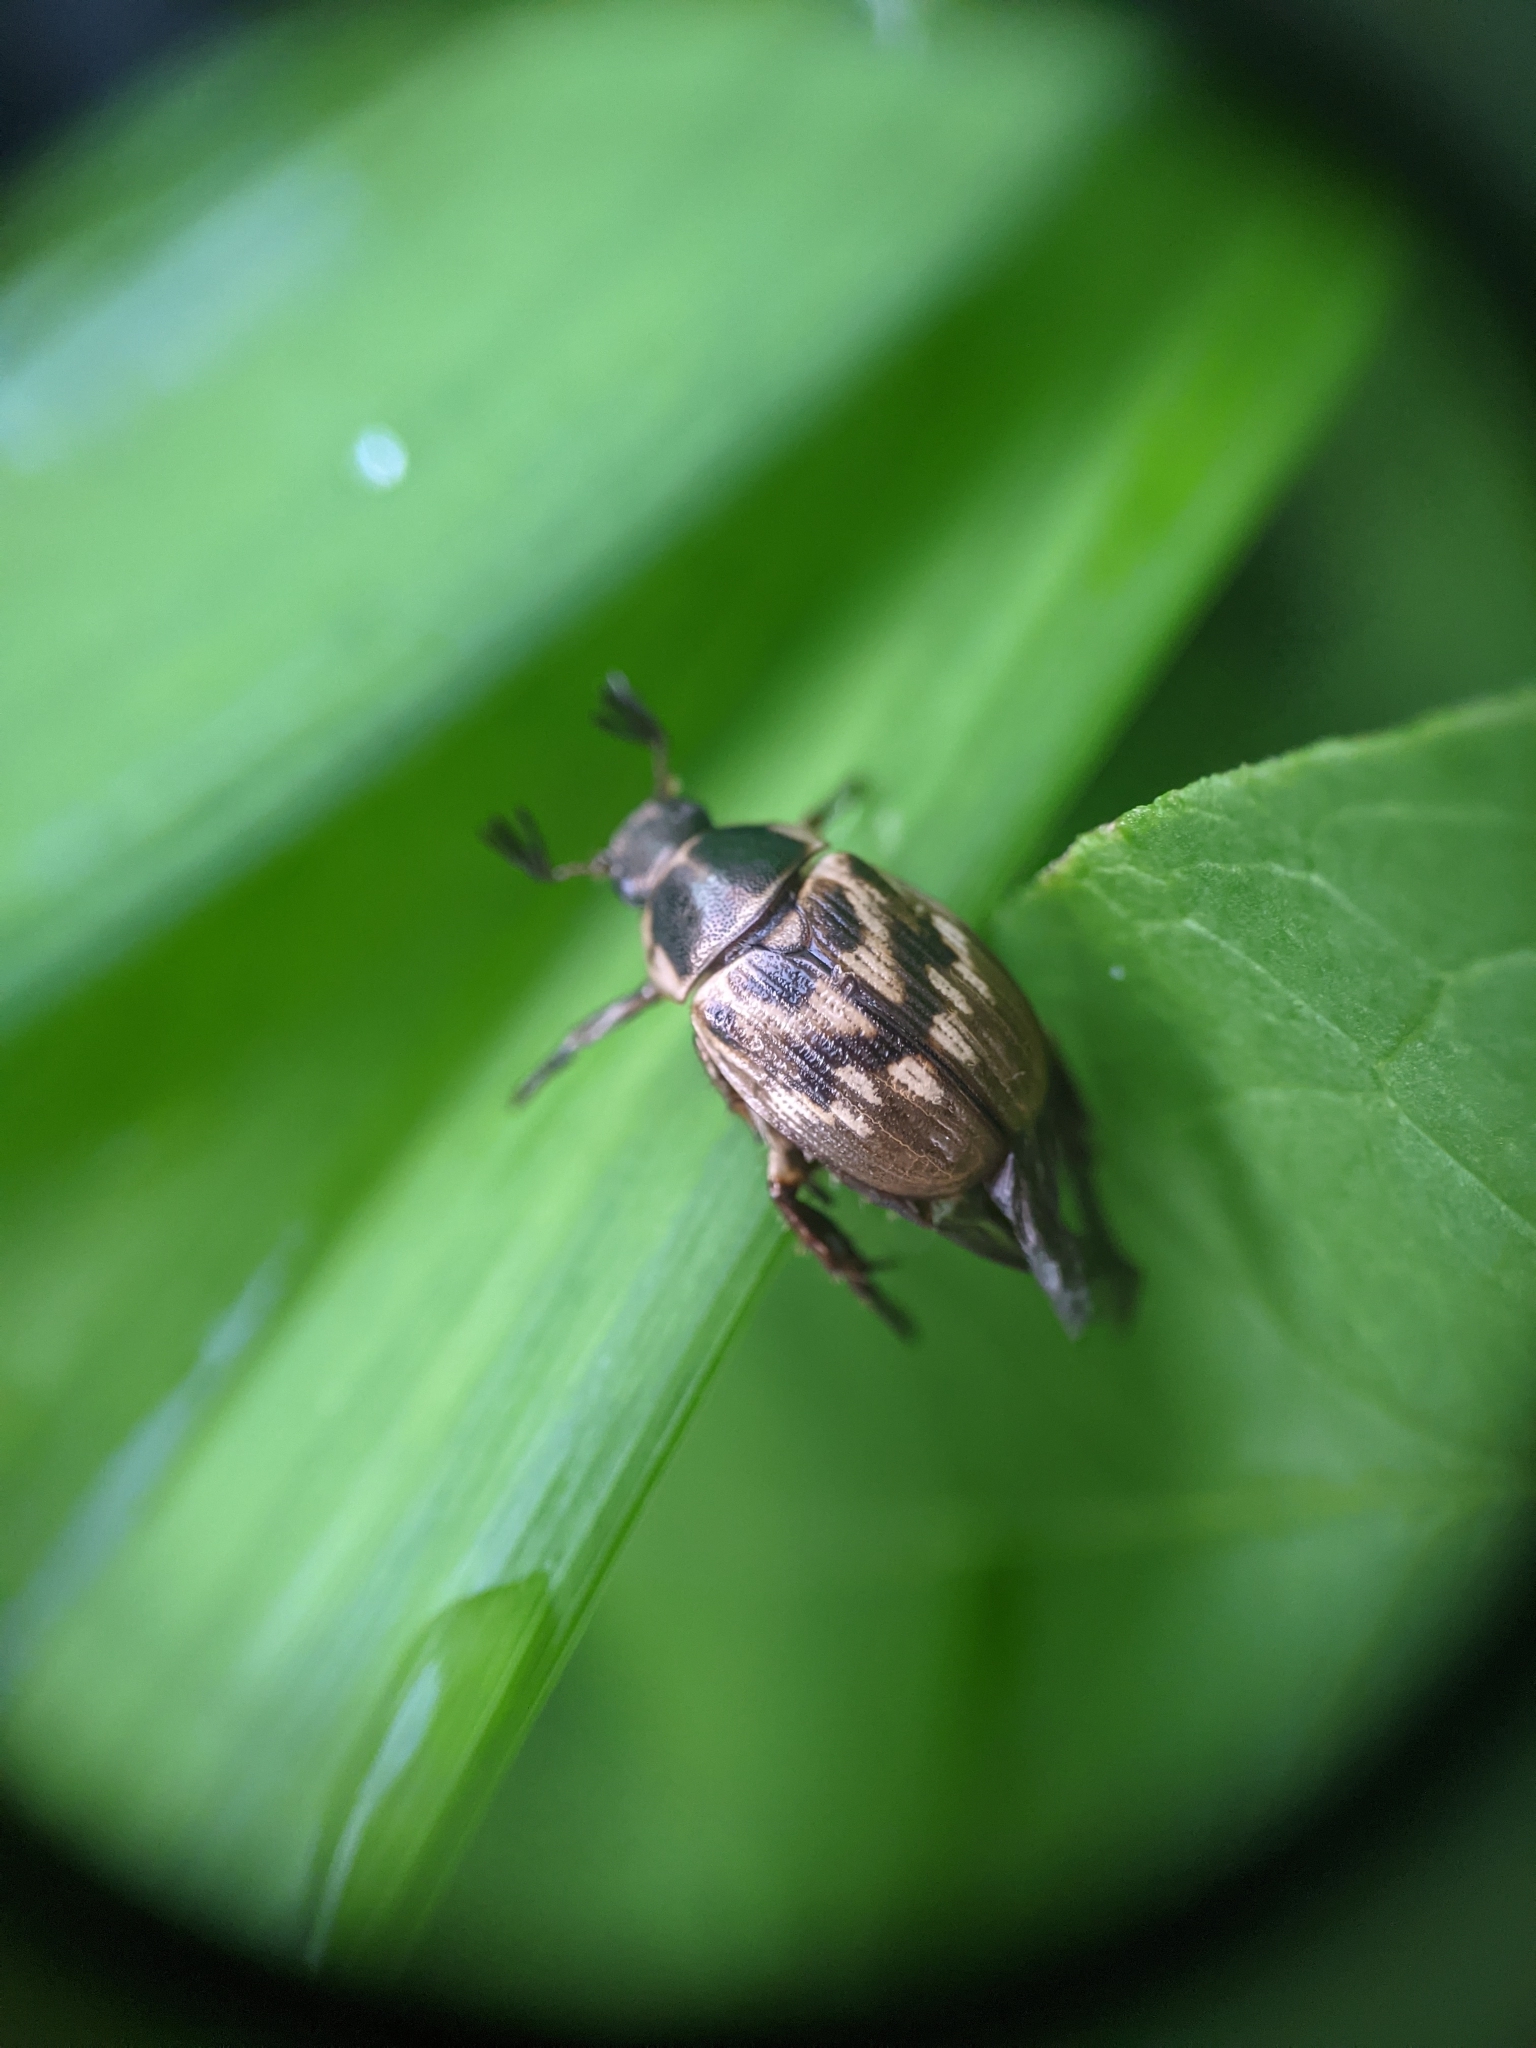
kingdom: Animalia
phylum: Arthropoda
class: Insecta
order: Coleoptera
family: Scarabaeidae
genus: Exomala
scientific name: Exomala orientalis
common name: Oriental beetle
